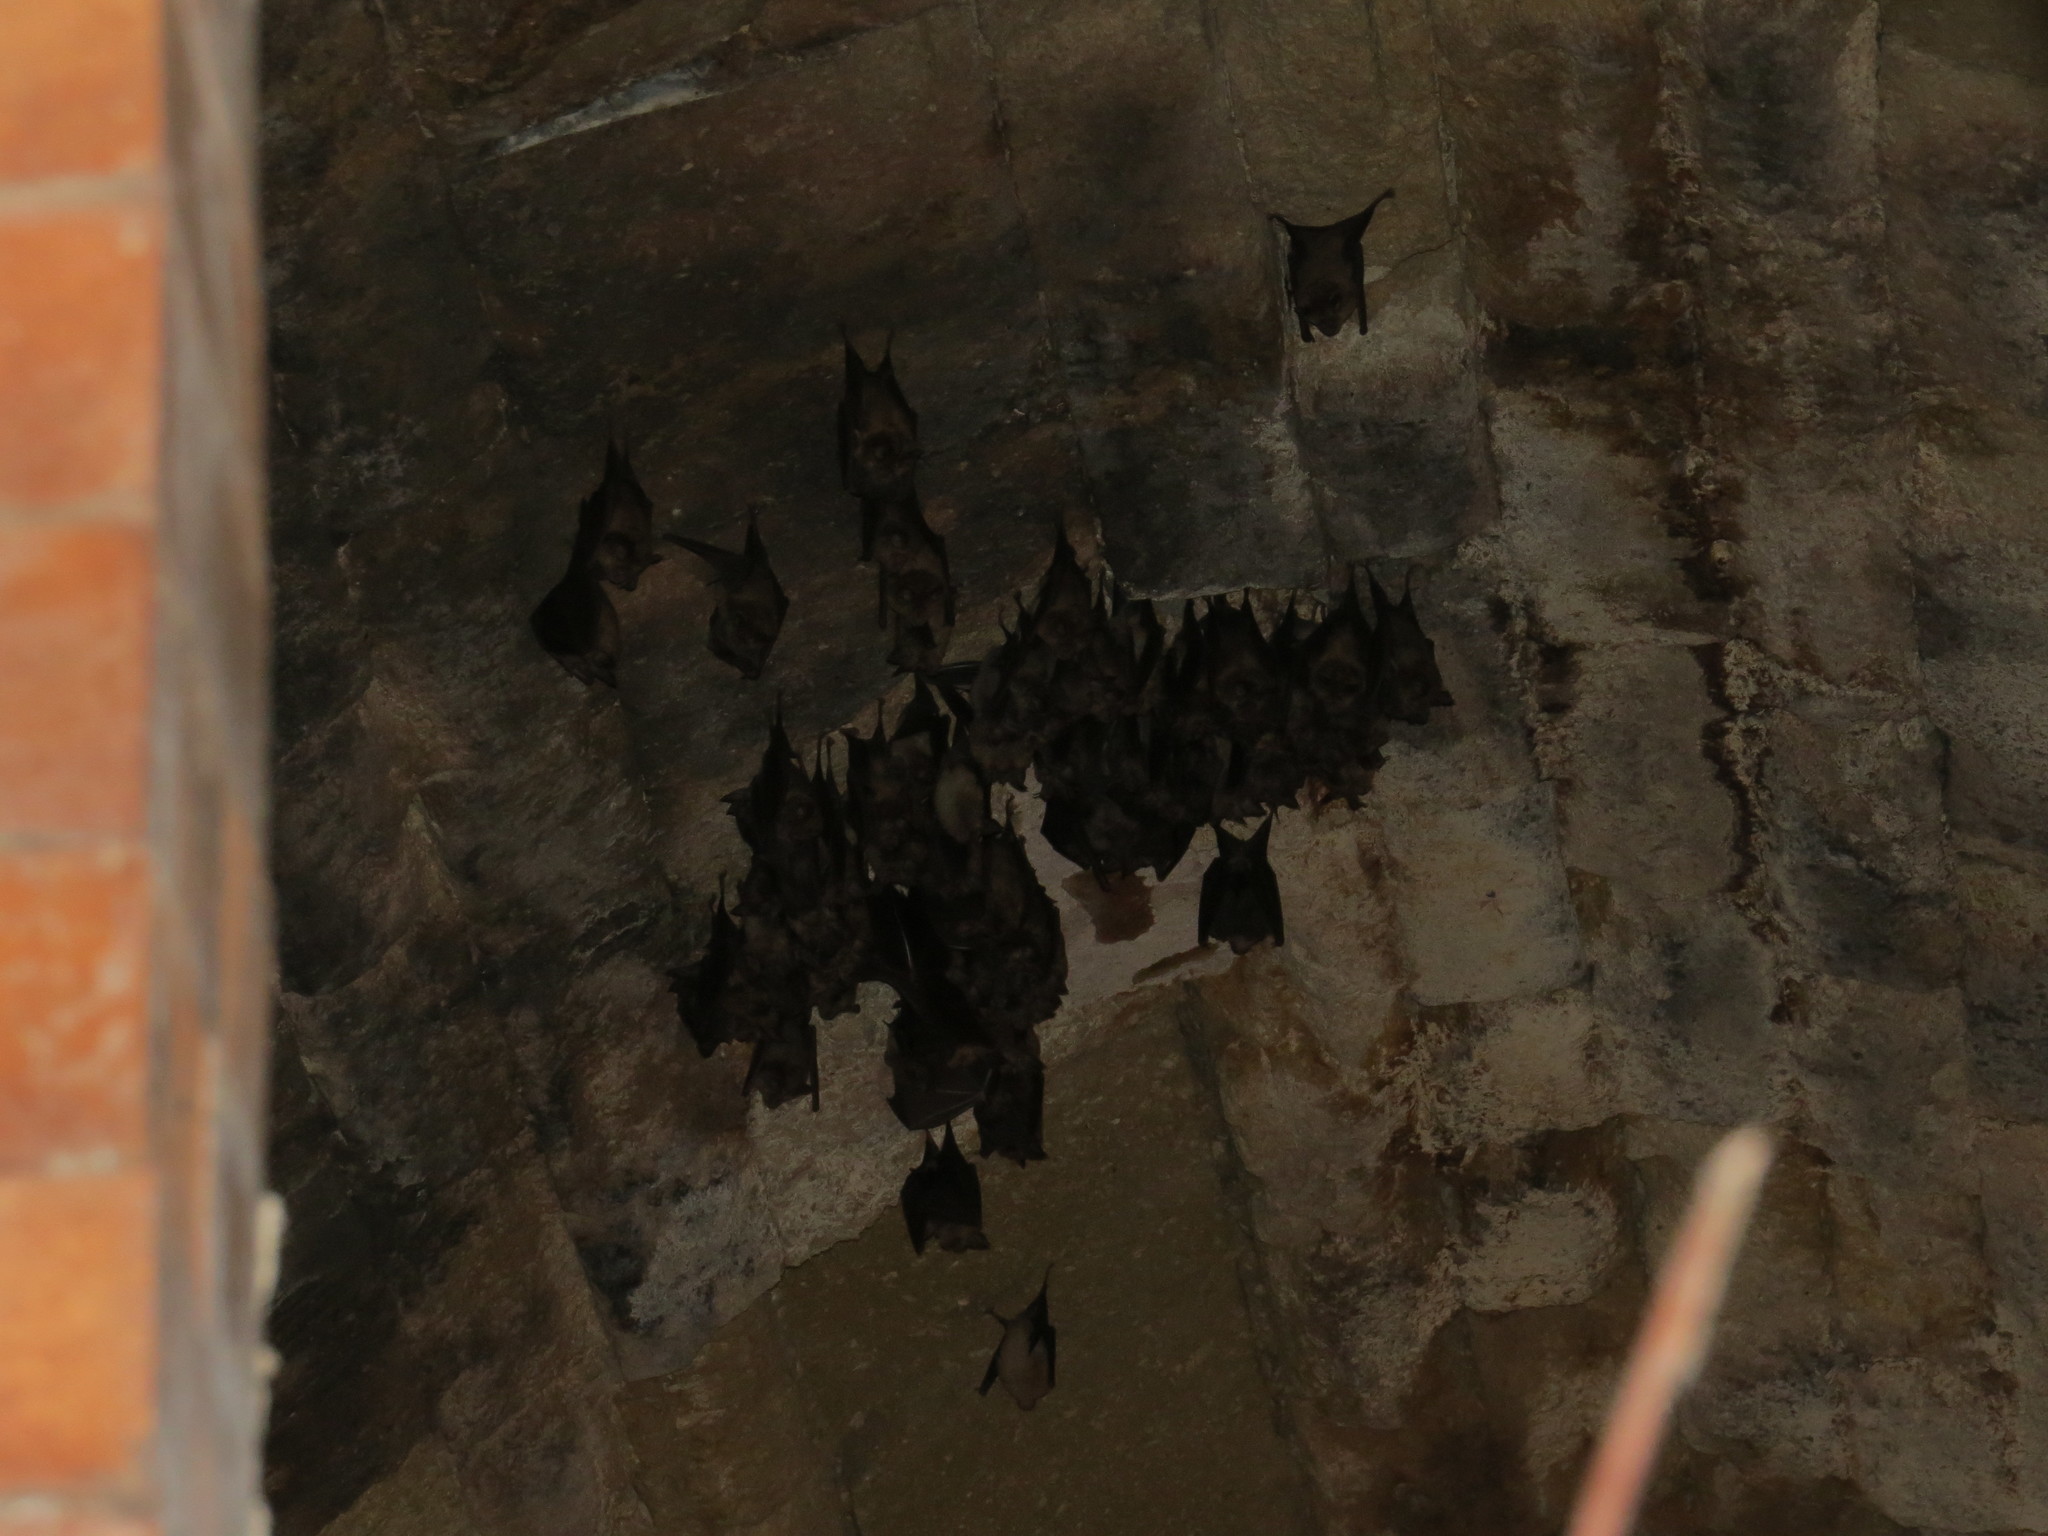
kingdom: Animalia
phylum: Chordata
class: Mammalia
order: Chiroptera
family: Rhinolophidae
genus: Rhinolophus
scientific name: Rhinolophus ferrumequinum
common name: Greater horseshoe bat
